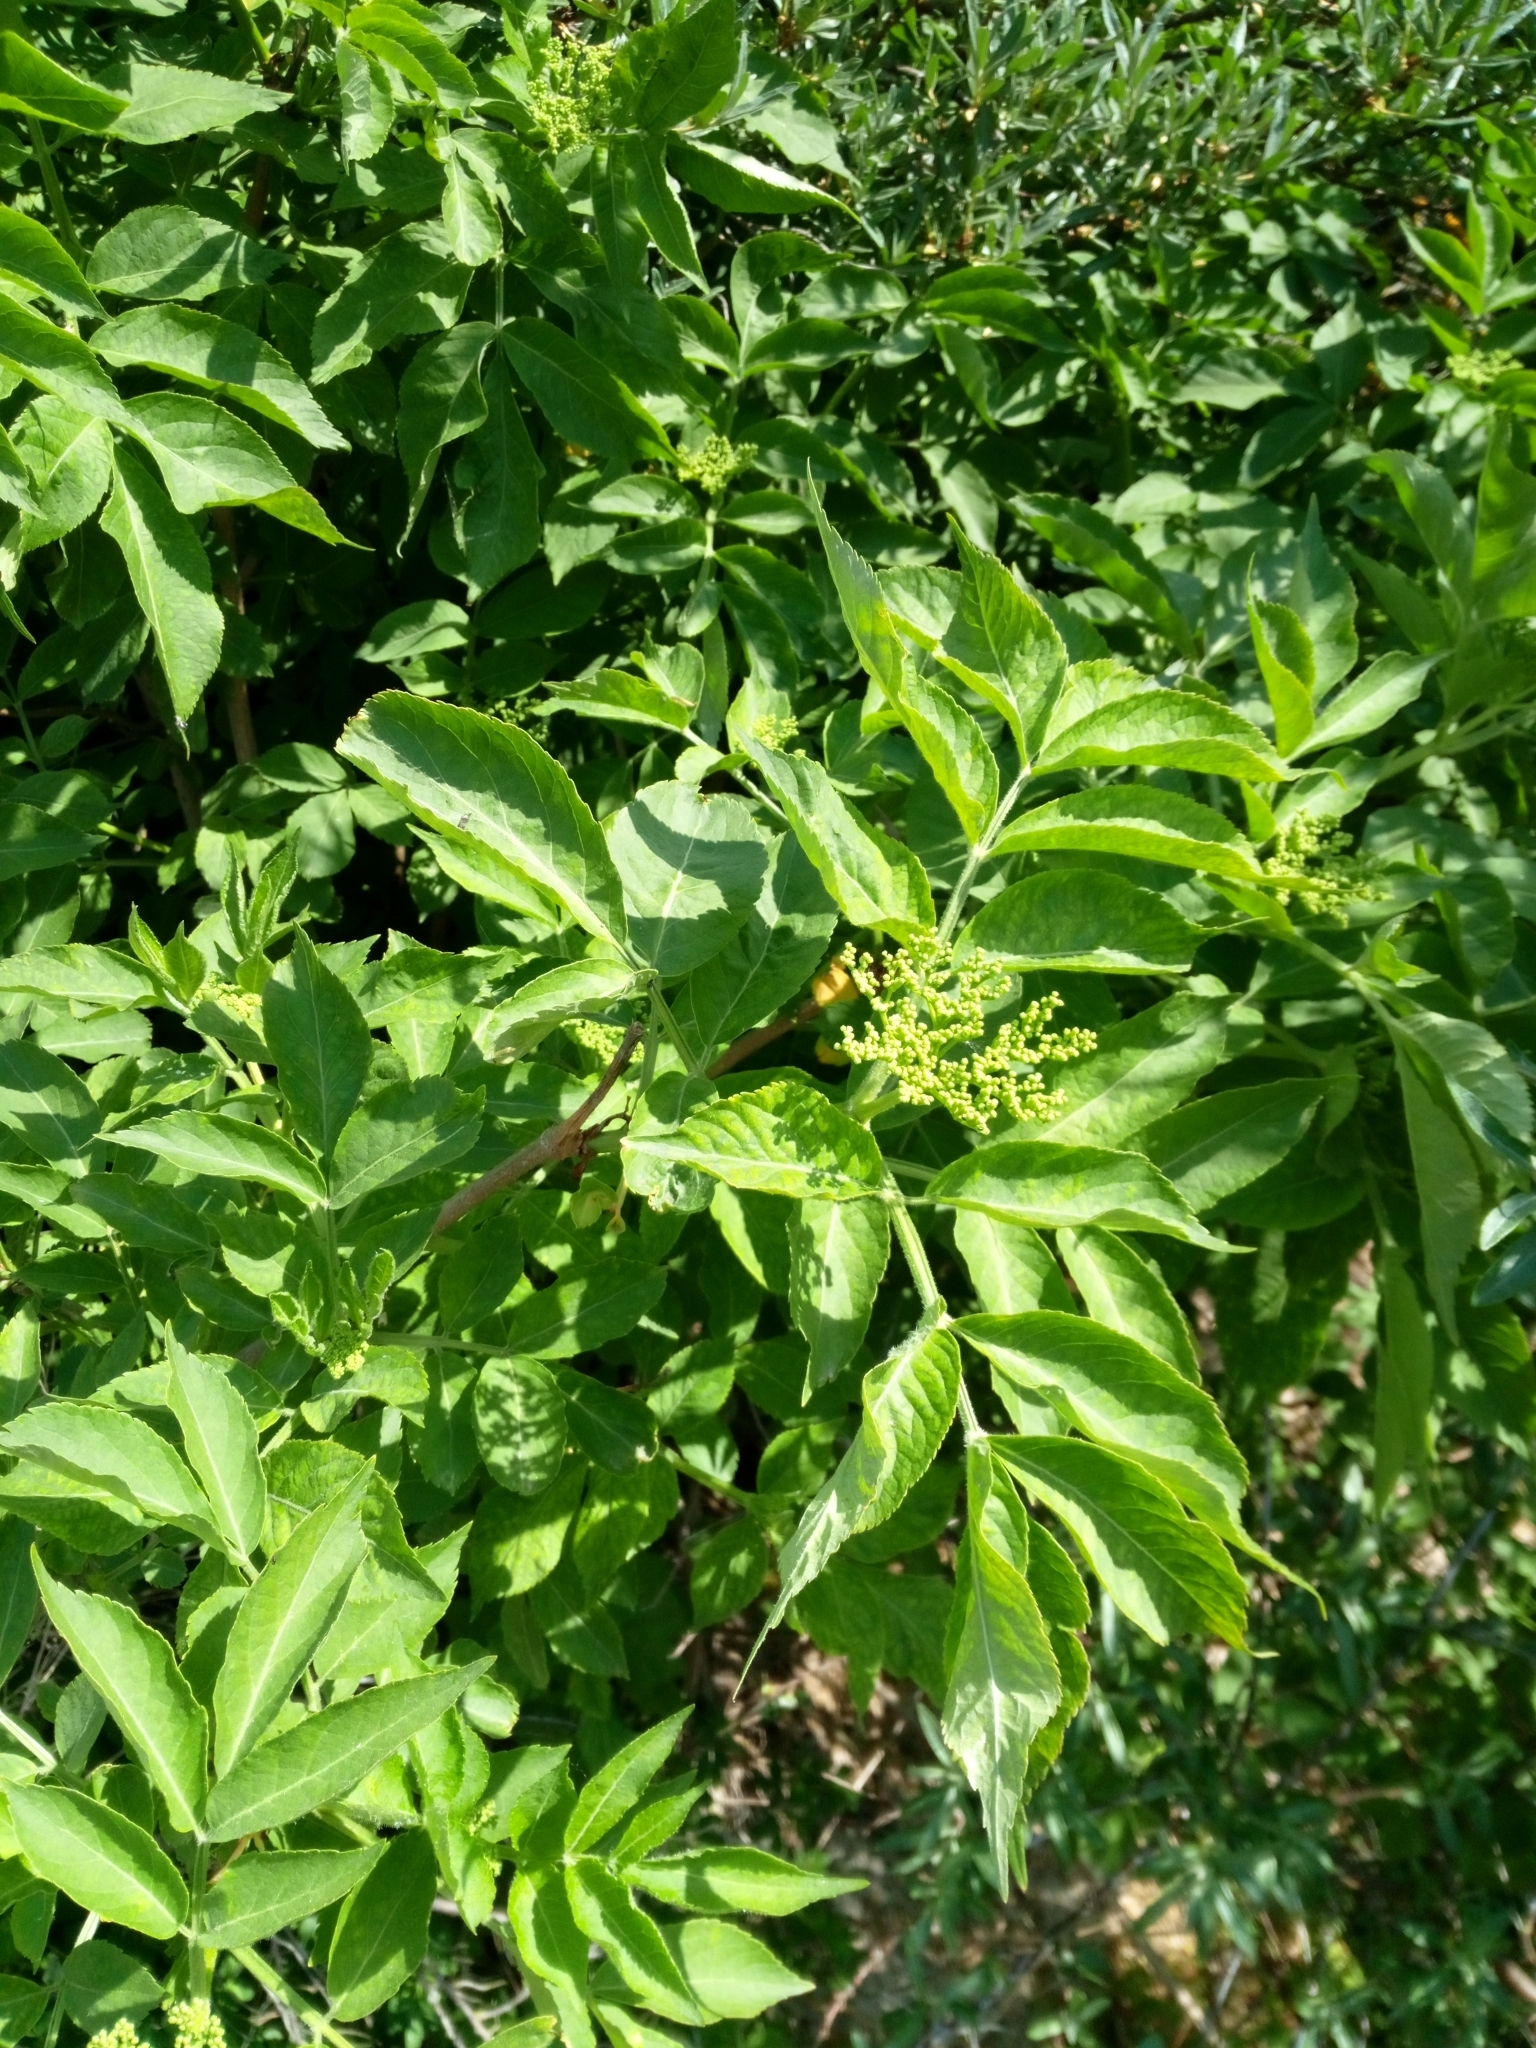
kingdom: Plantae
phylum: Tracheophyta
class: Magnoliopsida
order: Dipsacales
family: Viburnaceae
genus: Sambucus
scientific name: Sambucus nigra
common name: Elder
